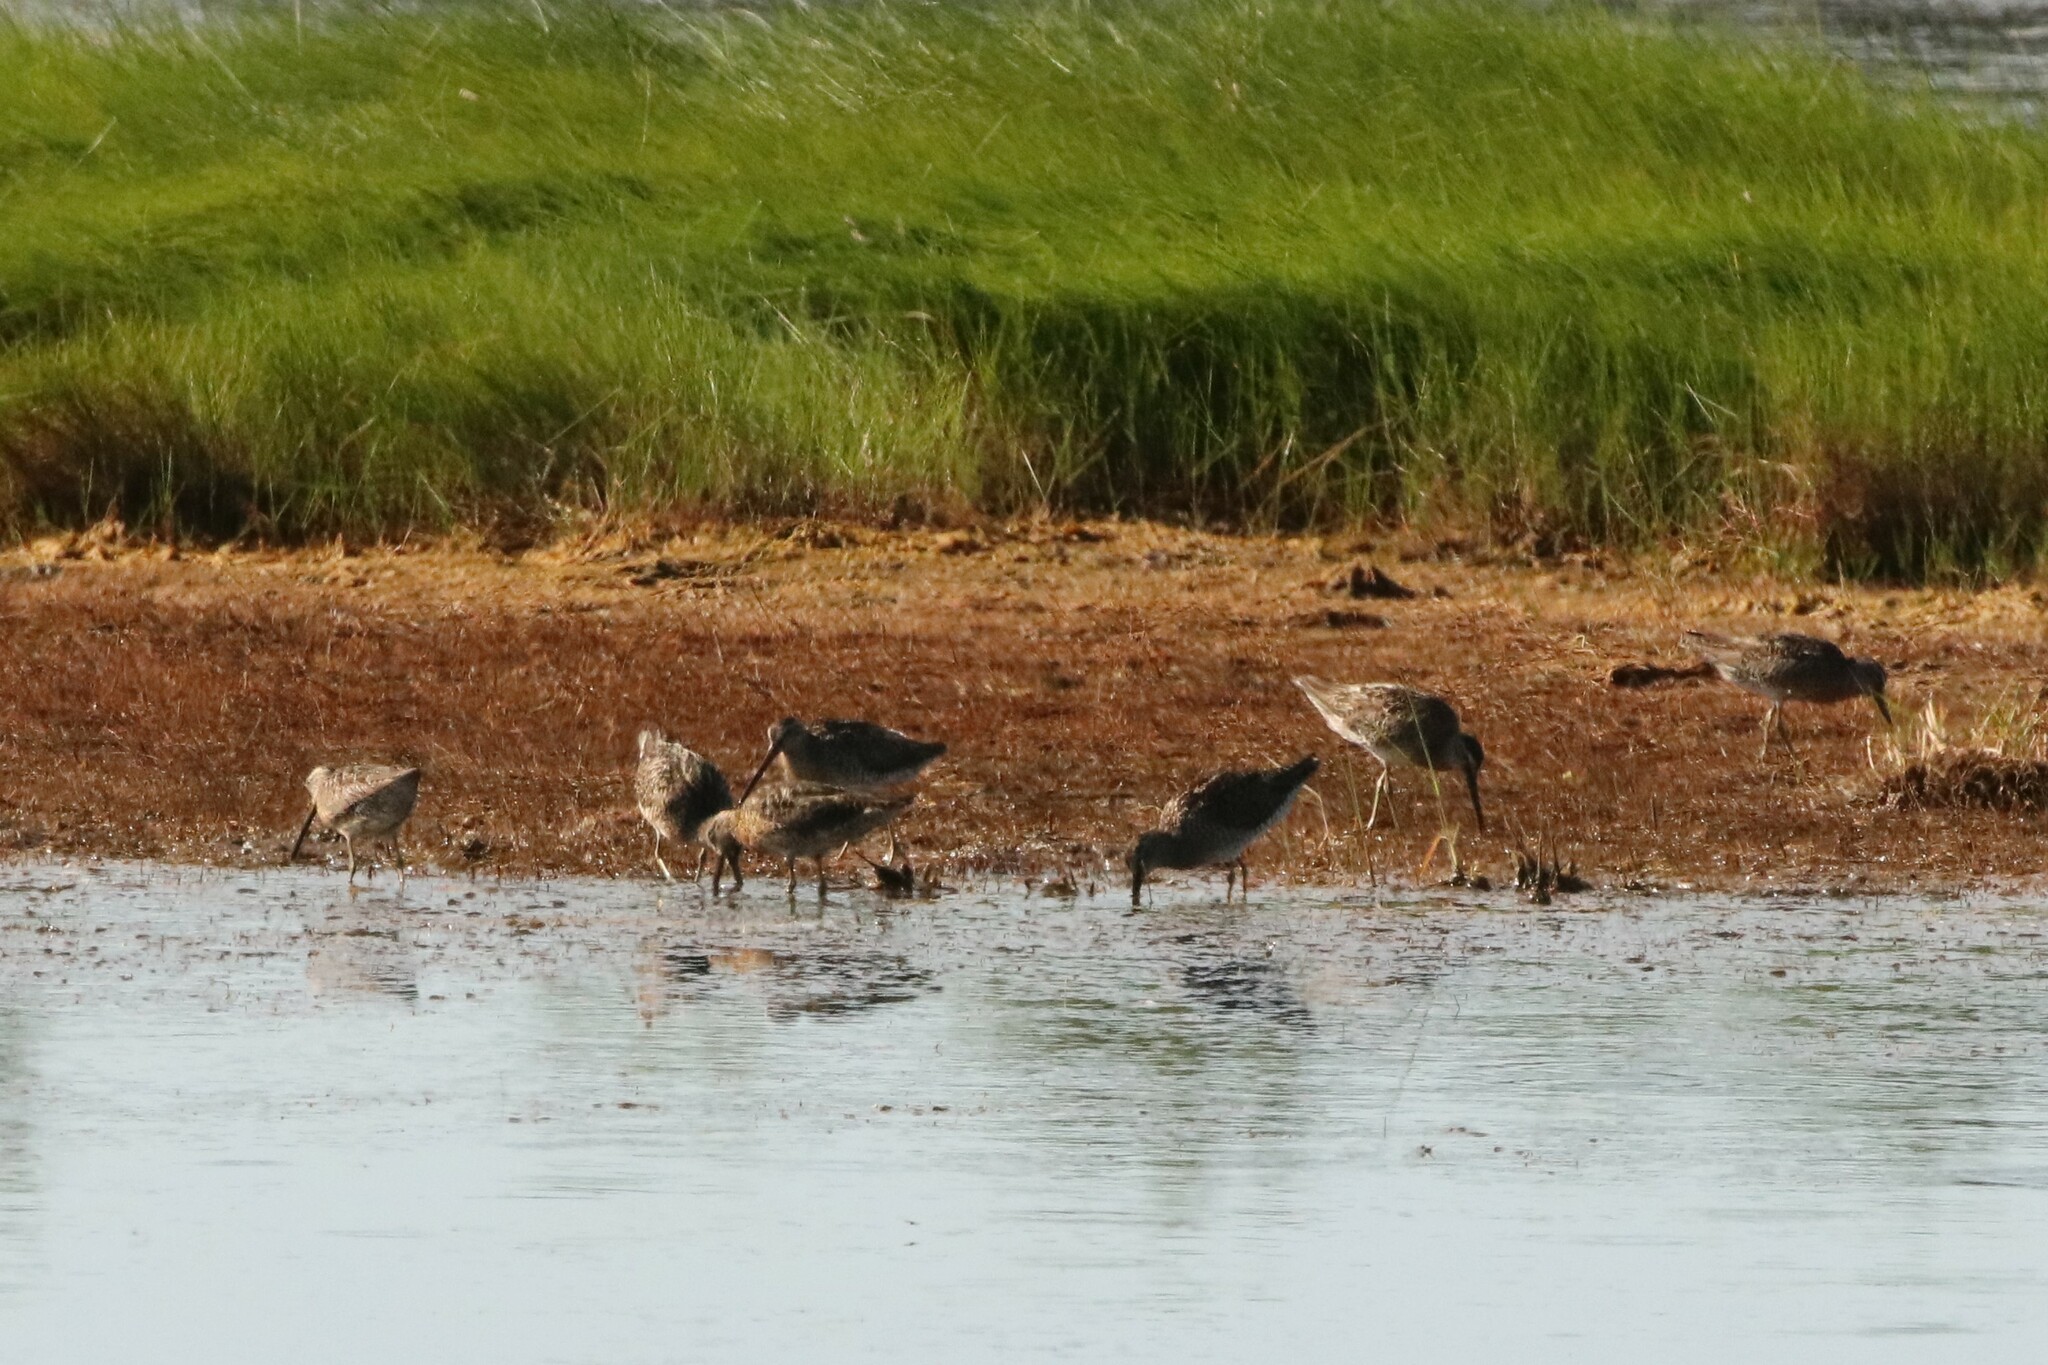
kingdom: Animalia
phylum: Chordata
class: Aves
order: Charadriiformes
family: Scolopacidae
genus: Limnodromus
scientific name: Limnodromus griseus
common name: Short-billed dowitcher
